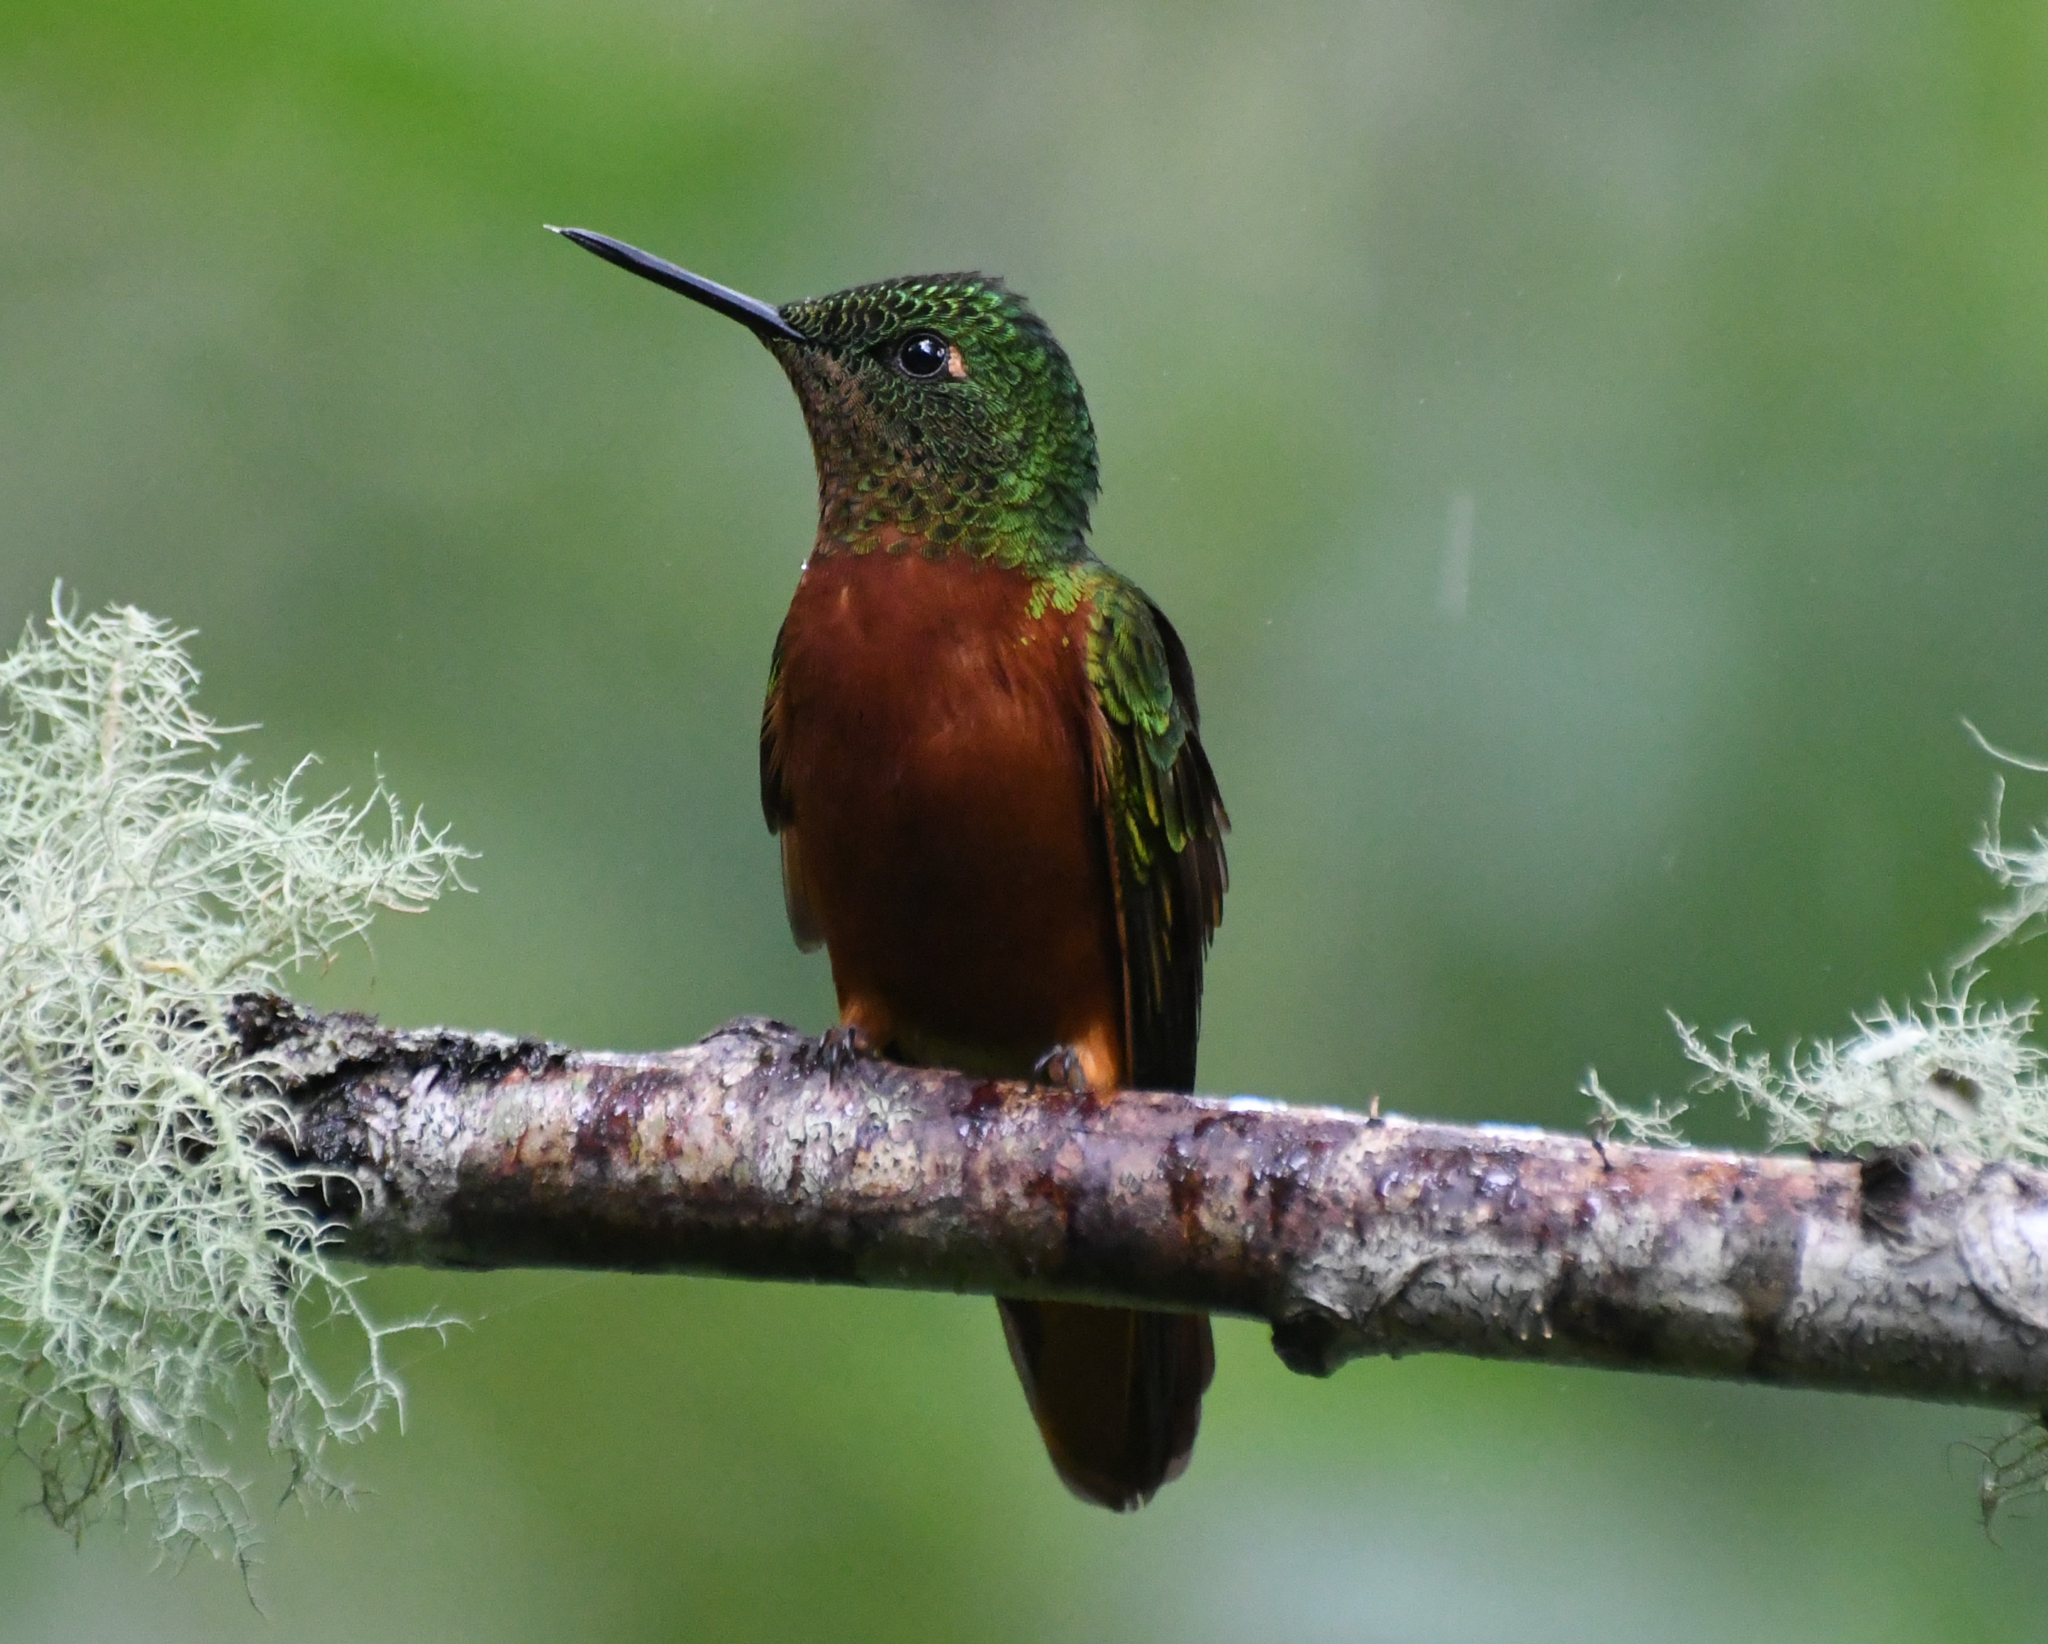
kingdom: Animalia
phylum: Chordata
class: Aves
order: Apodiformes
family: Trochilidae
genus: Boissonneaua
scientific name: Boissonneaua matthewsii
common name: Chestnut-breasted coronet
